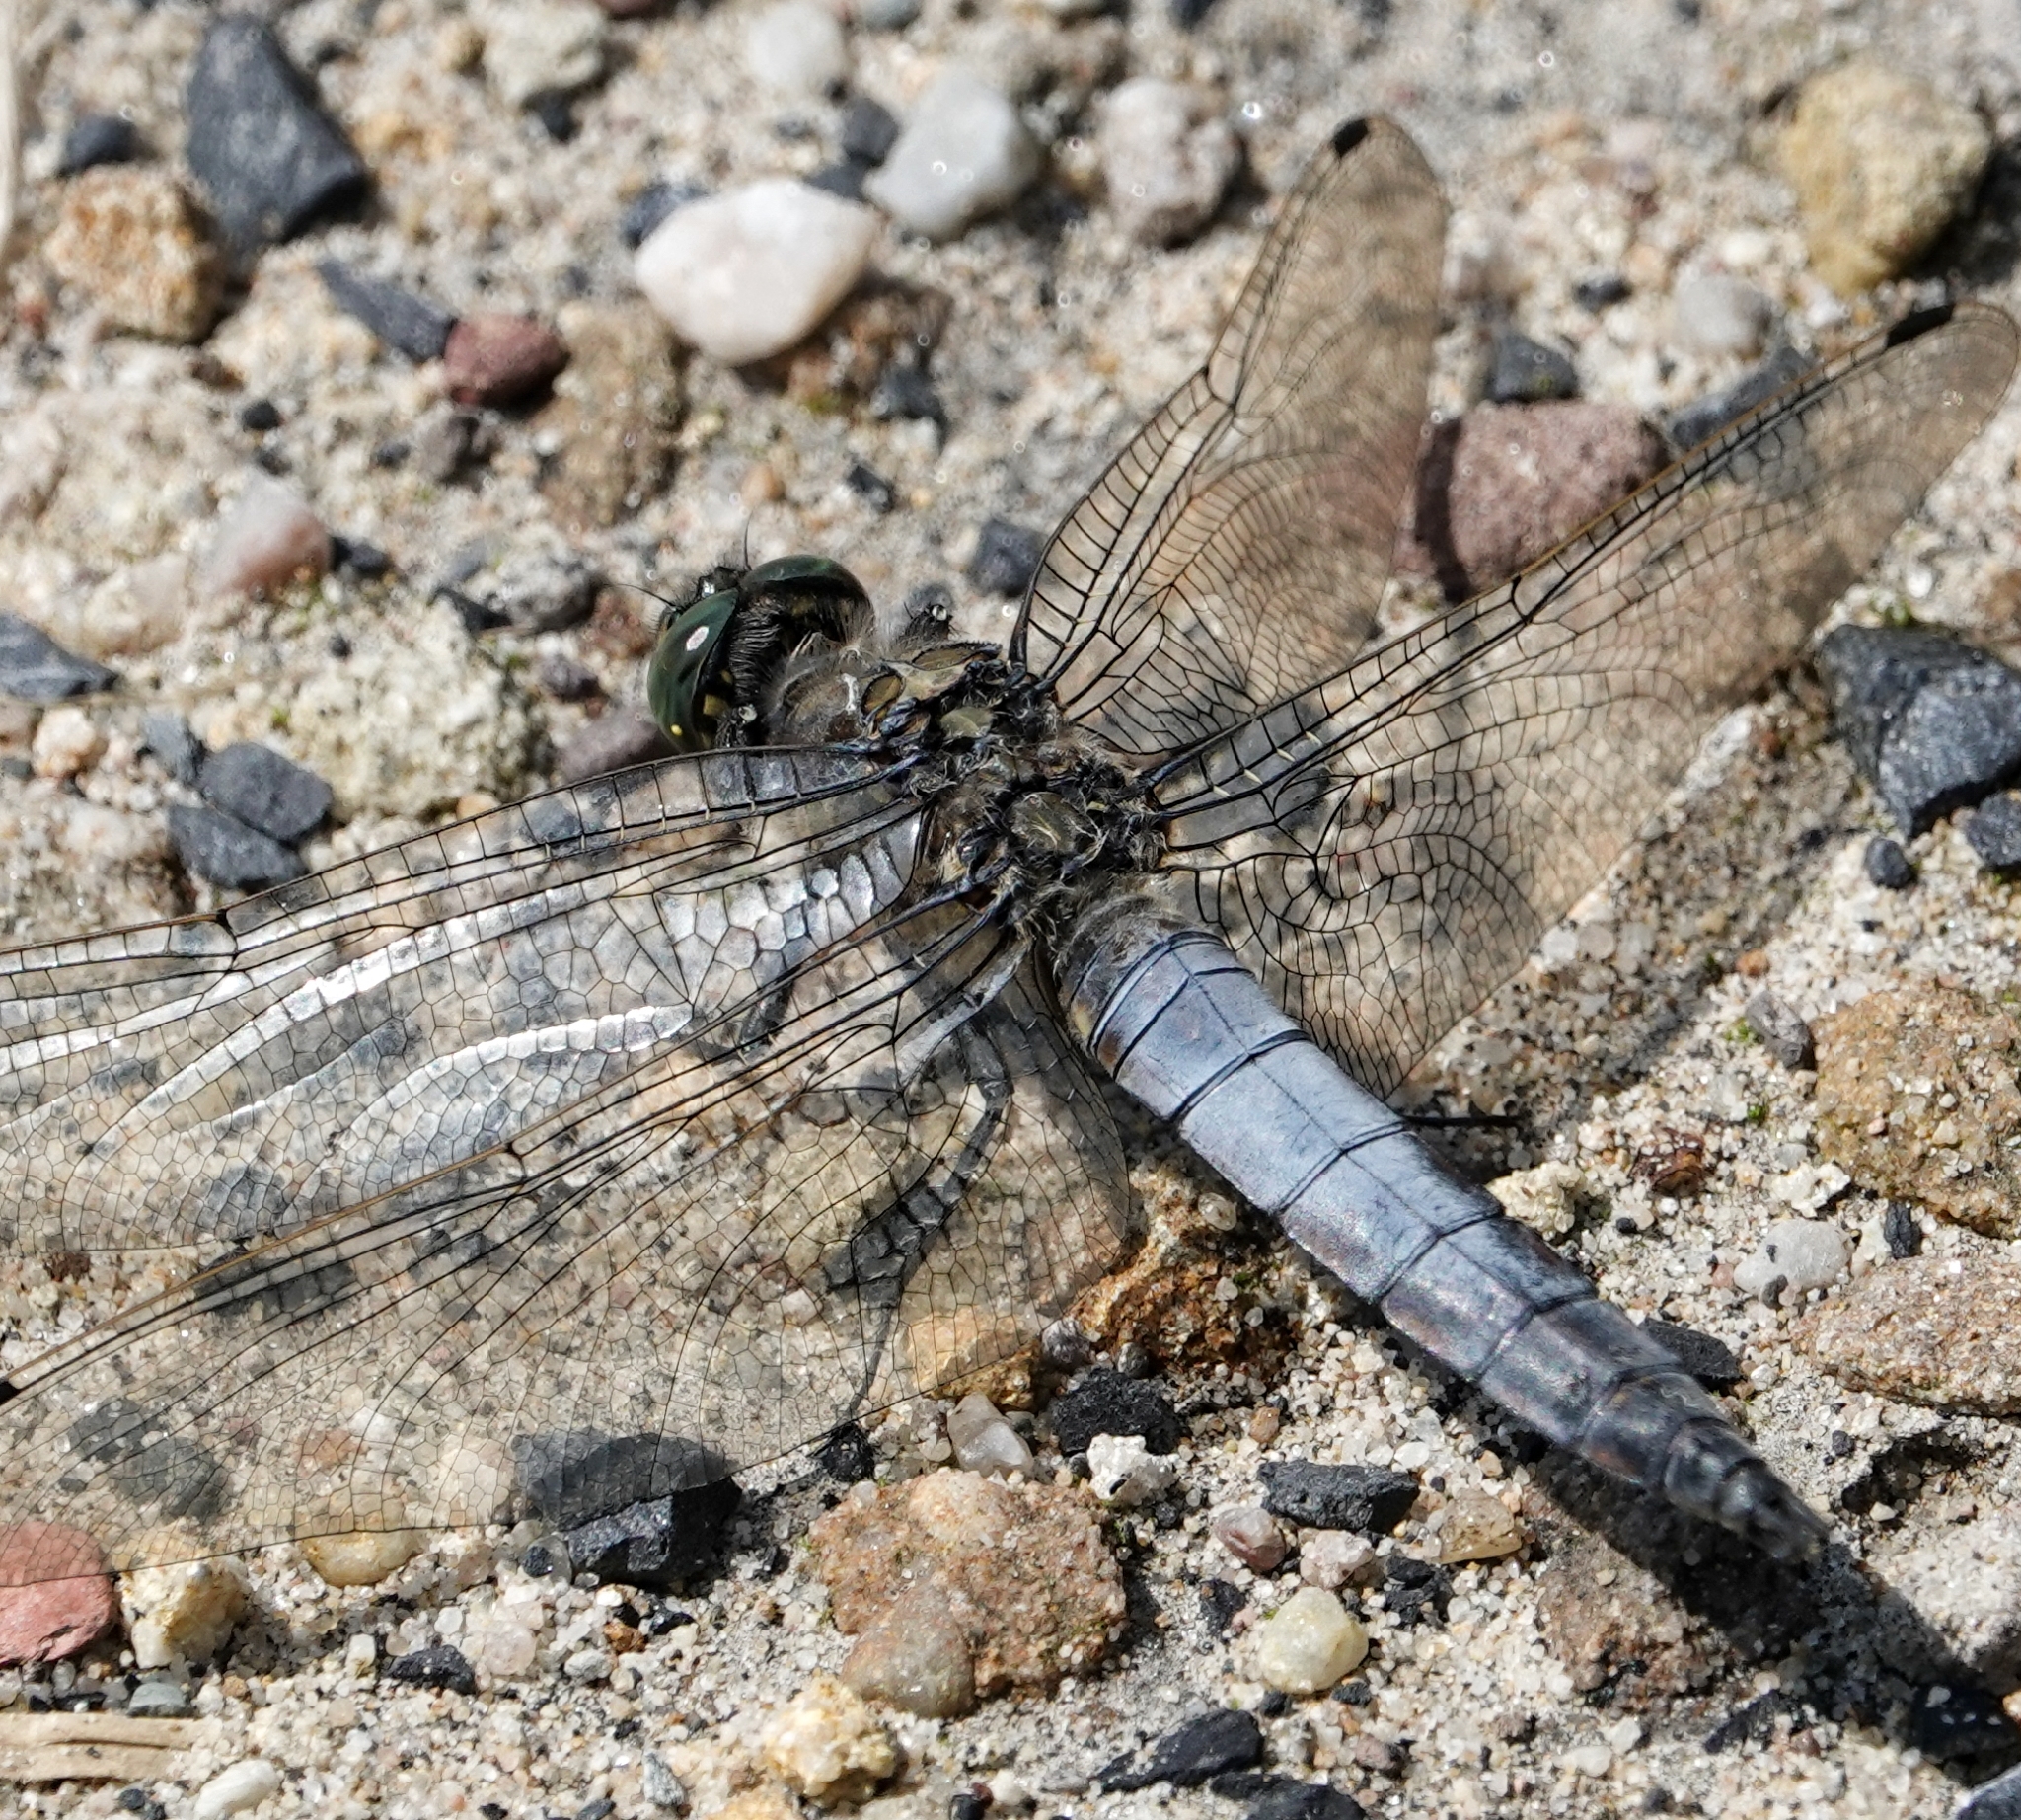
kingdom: Animalia
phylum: Arthropoda
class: Insecta
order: Odonata
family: Libellulidae
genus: Orthetrum
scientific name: Orthetrum cancellatum
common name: Black-tailed skimmer
